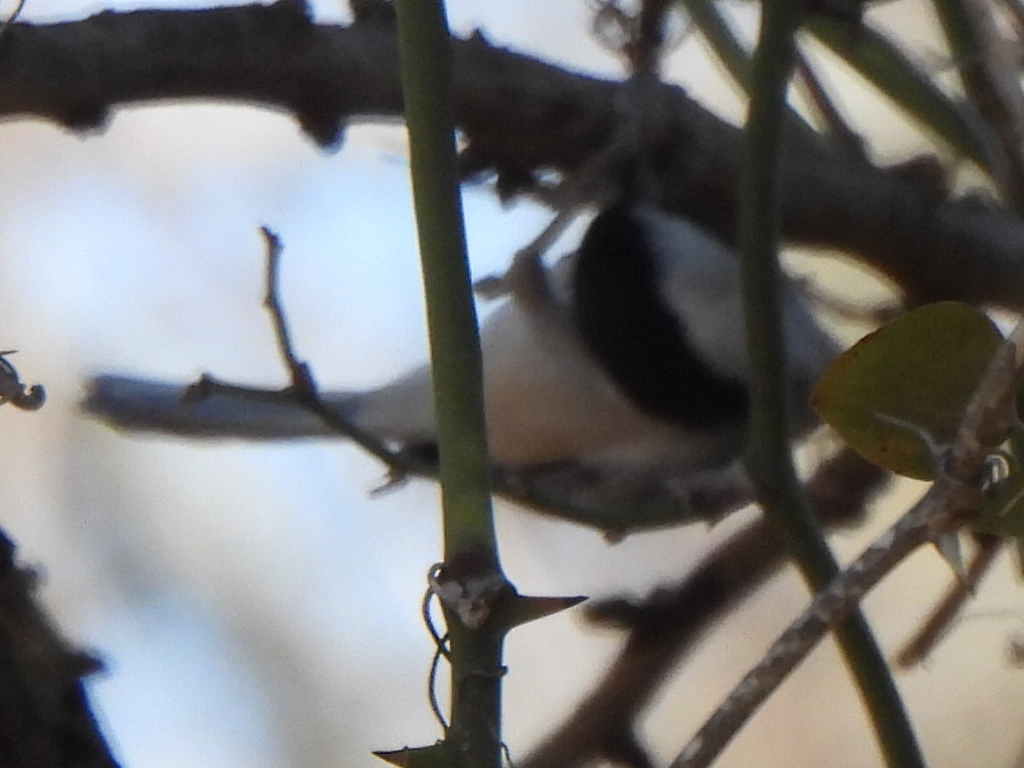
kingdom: Animalia
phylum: Chordata
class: Aves
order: Passeriformes
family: Paridae
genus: Poecile
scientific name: Poecile carolinensis
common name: Carolina chickadee
